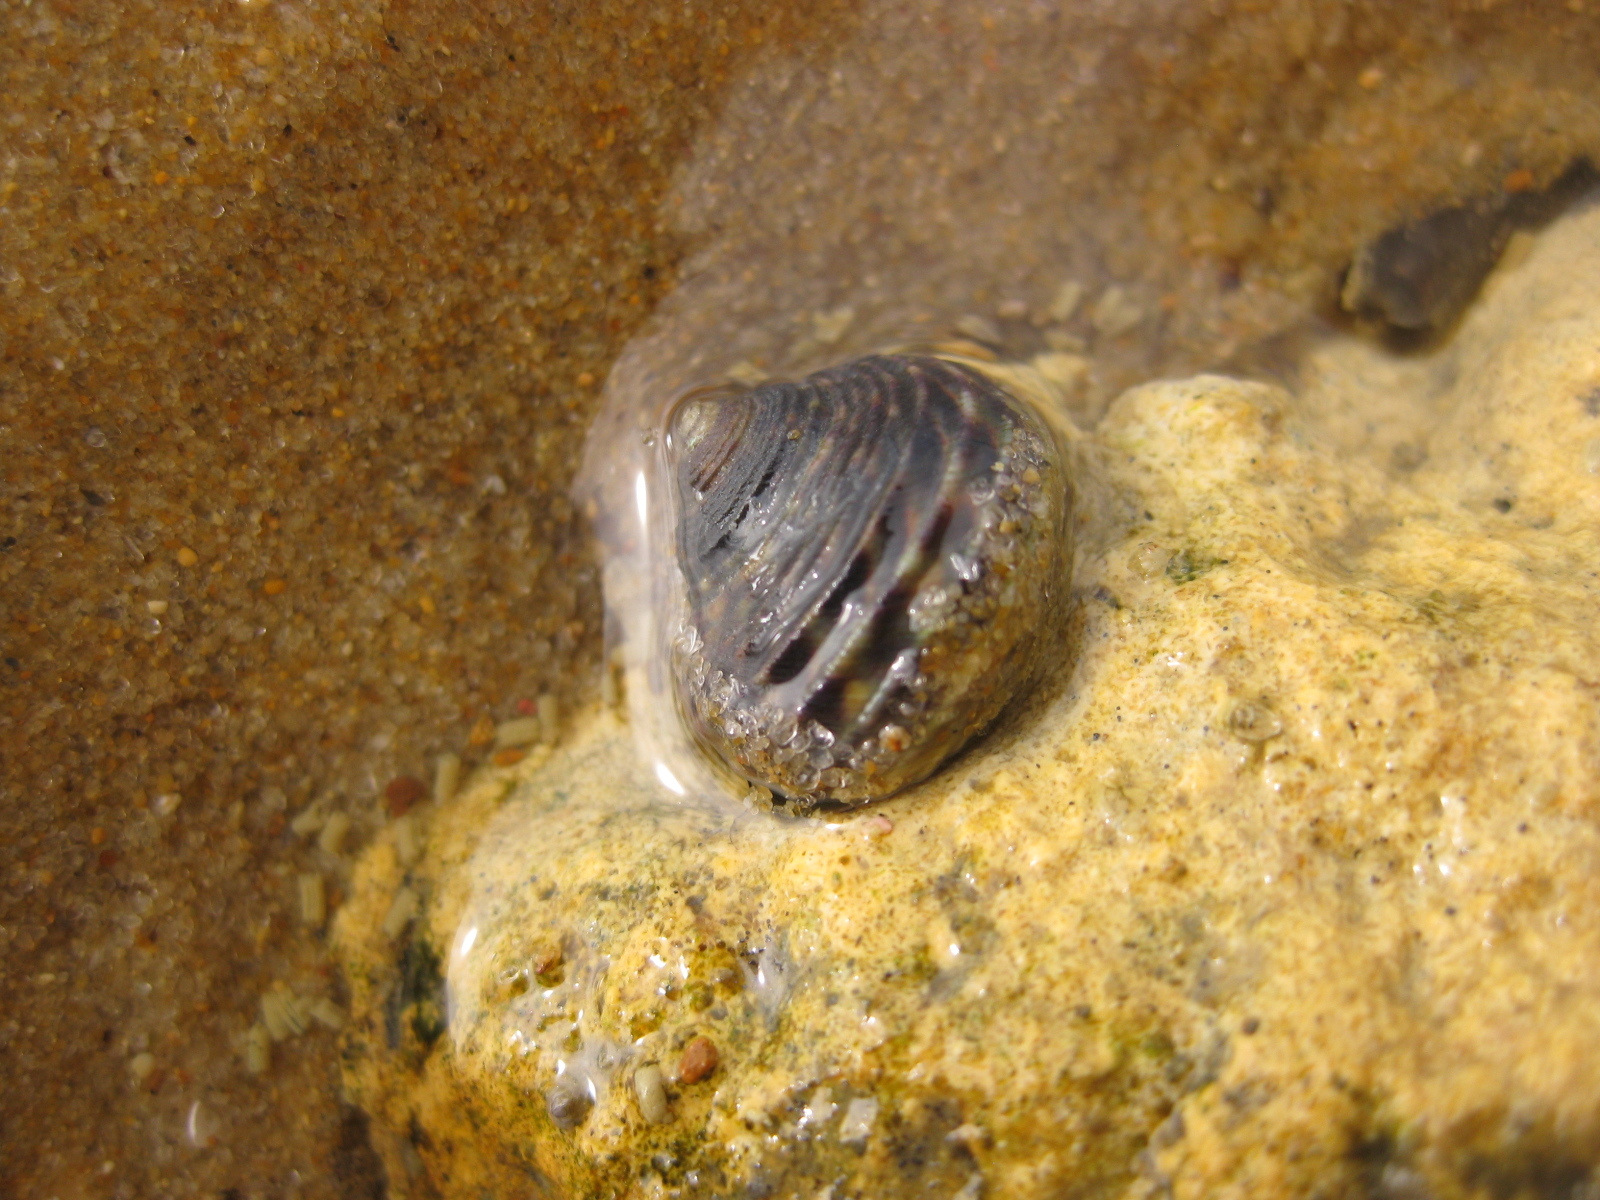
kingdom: Animalia
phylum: Mollusca
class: Gastropoda
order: Trochida
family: Trochidae
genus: Diloma
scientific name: Diloma subrostratum
